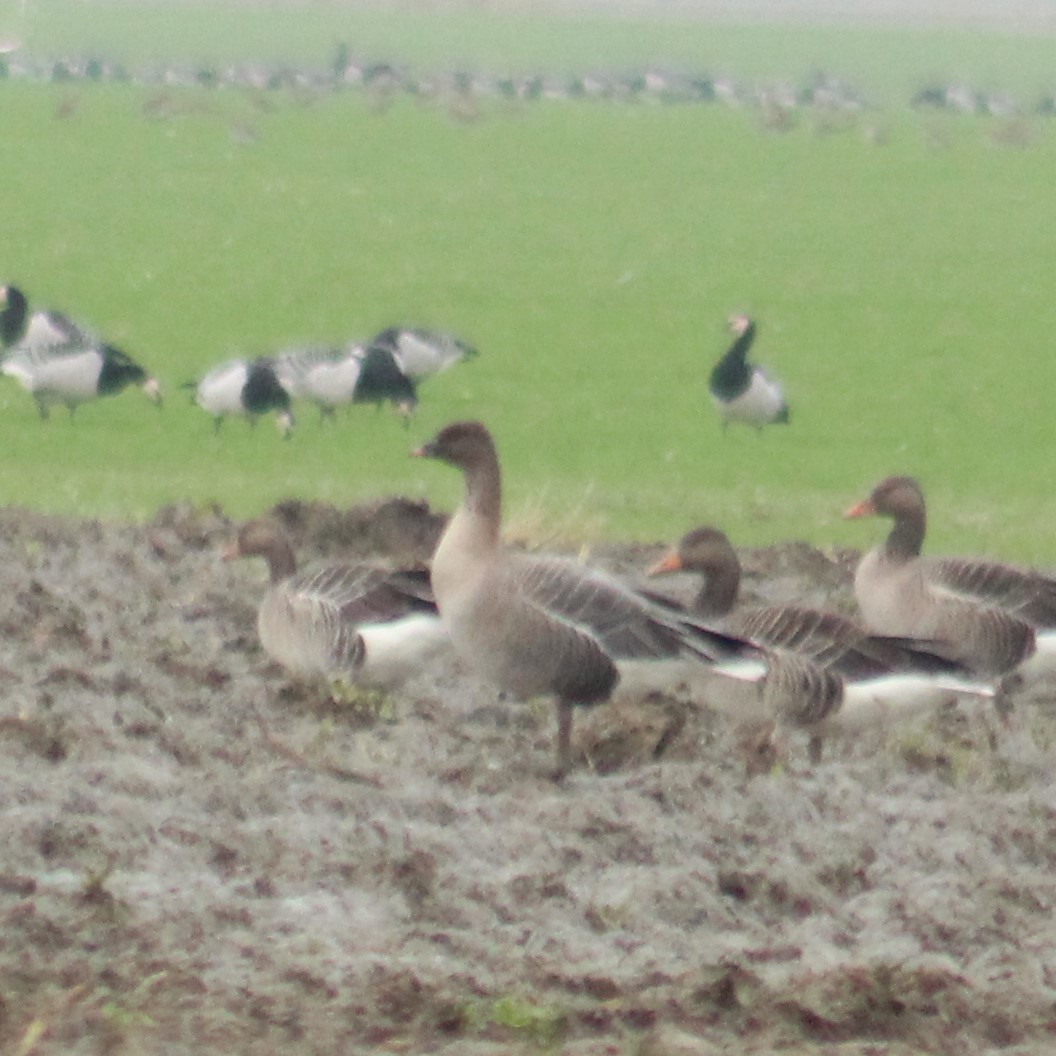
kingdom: Animalia
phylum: Chordata
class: Aves
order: Anseriformes
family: Anatidae
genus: Anser
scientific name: Anser serrirostris
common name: Tundra bean goose
